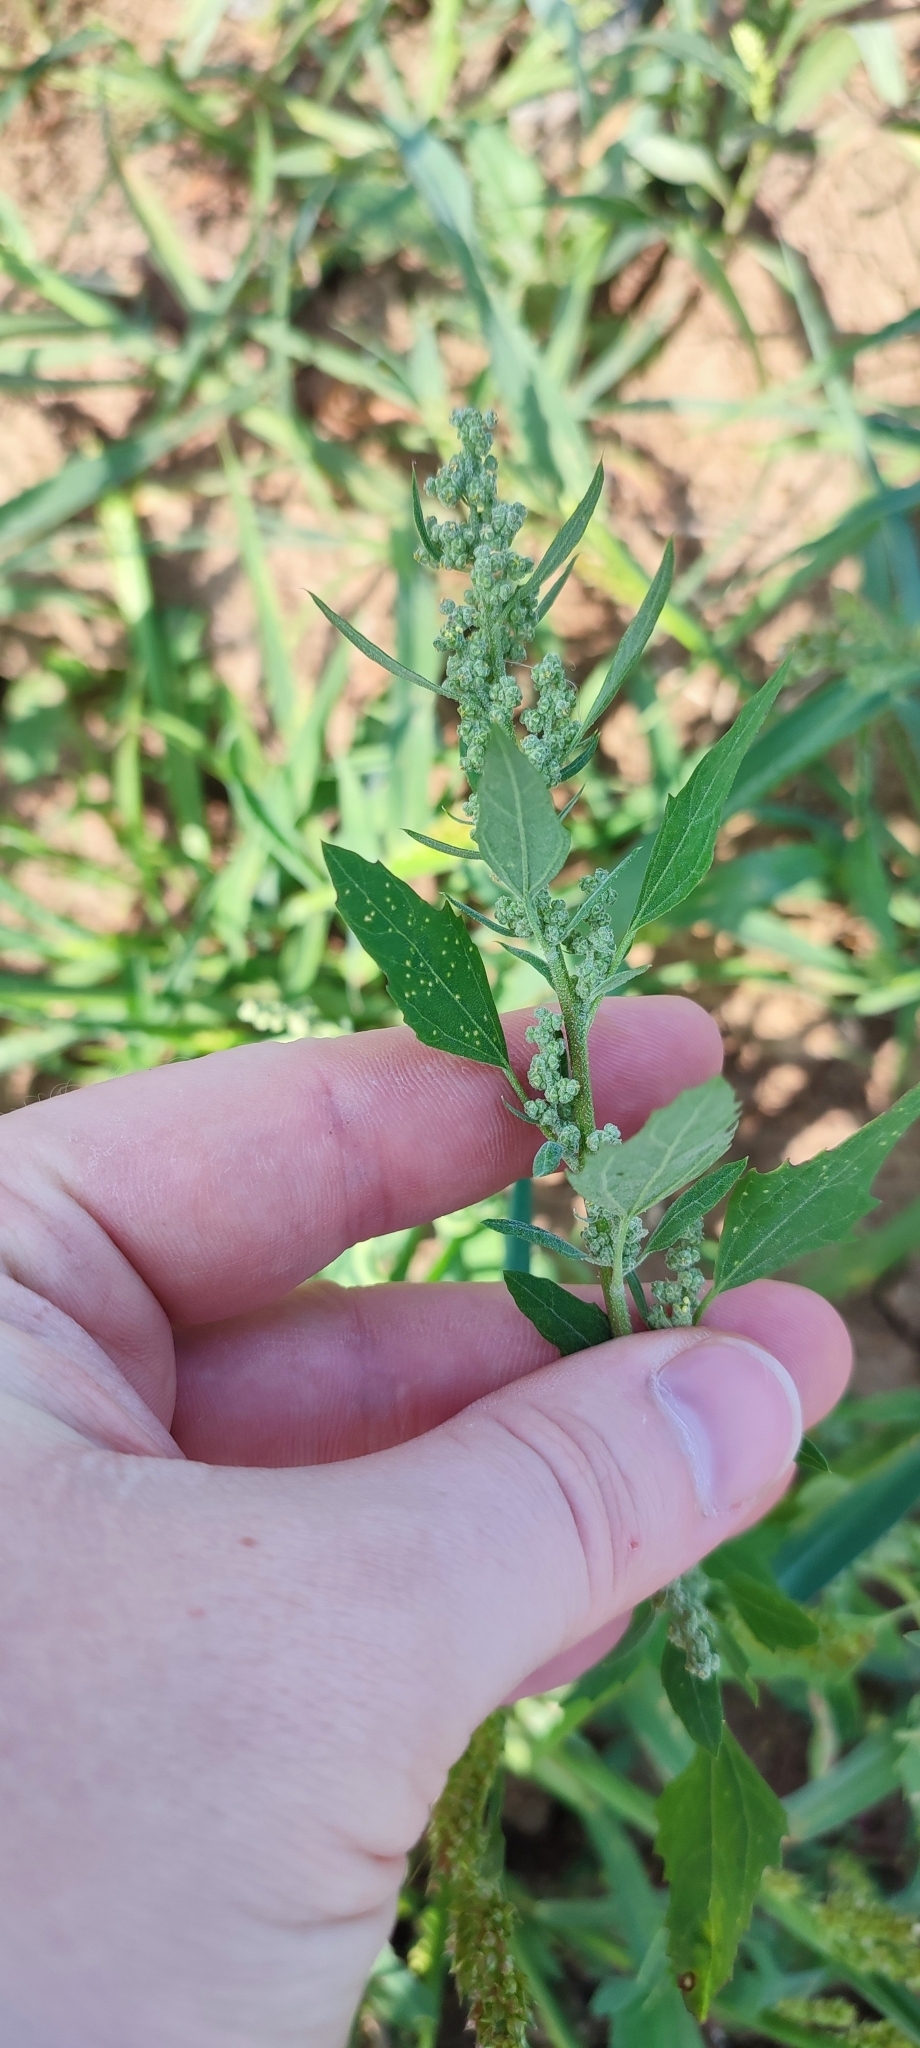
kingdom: Plantae
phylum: Tracheophyta
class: Magnoliopsida
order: Caryophyllales
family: Amaranthaceae
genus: Chenopodium
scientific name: Chenopodium album
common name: Fat-hen
